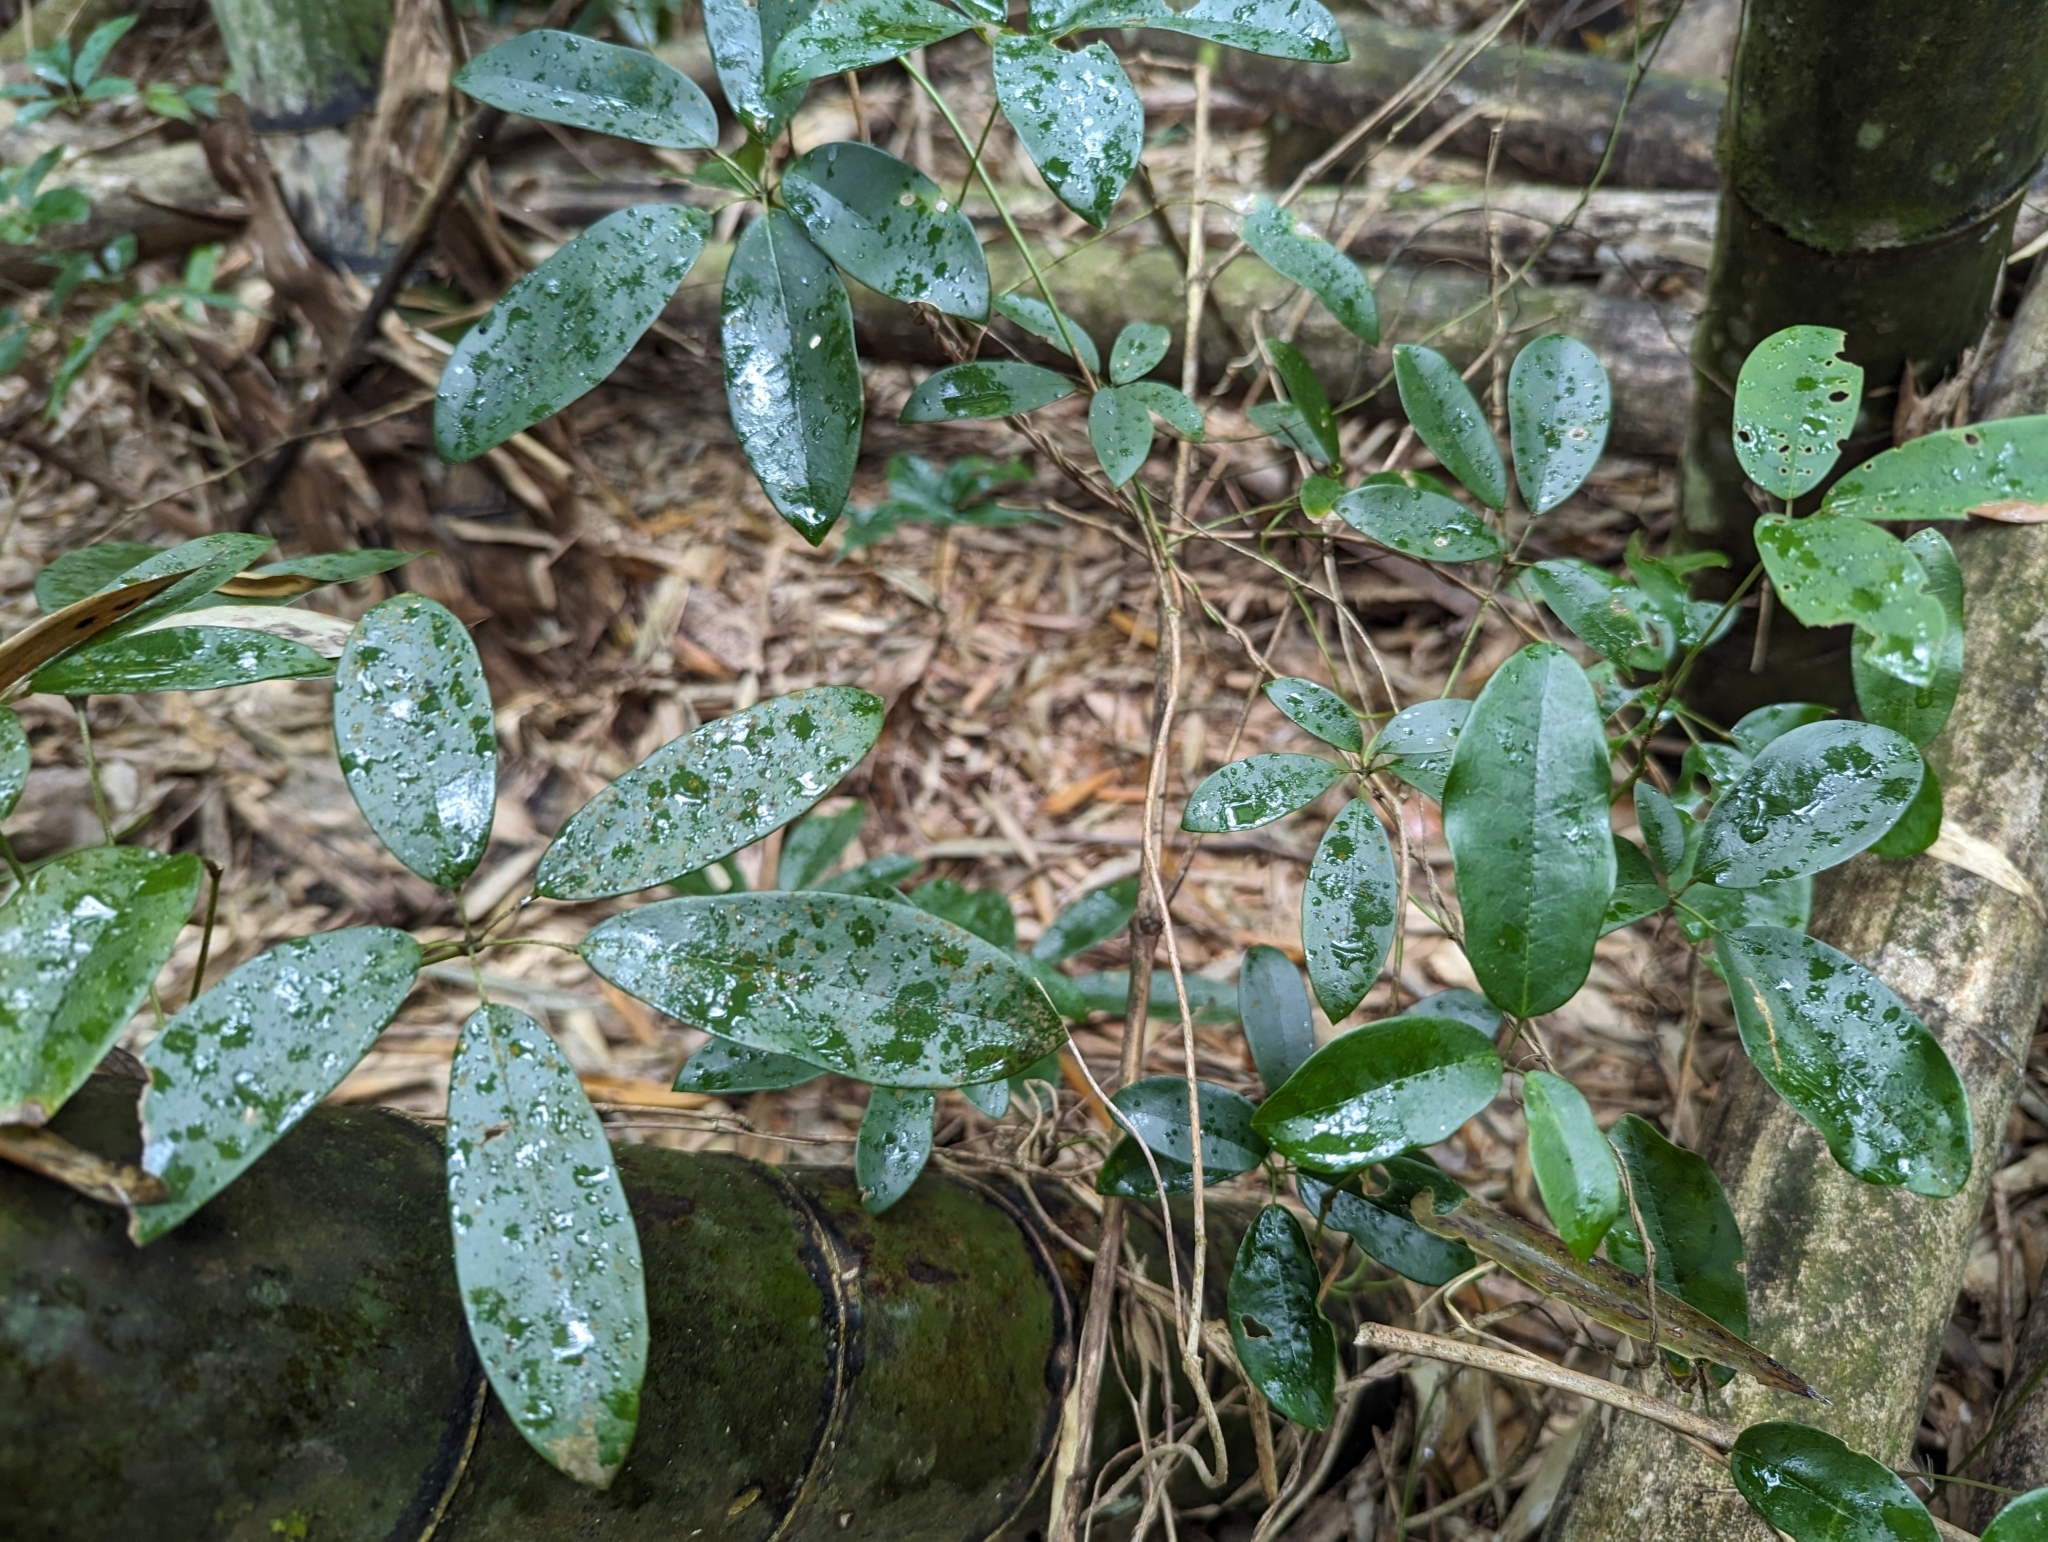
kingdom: Plantae
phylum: Tracheophyta
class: Magnoliopsida
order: Ranunculales
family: Lardizabalaceae
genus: Stauntonia
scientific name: Stauntonia obovatifoliola
